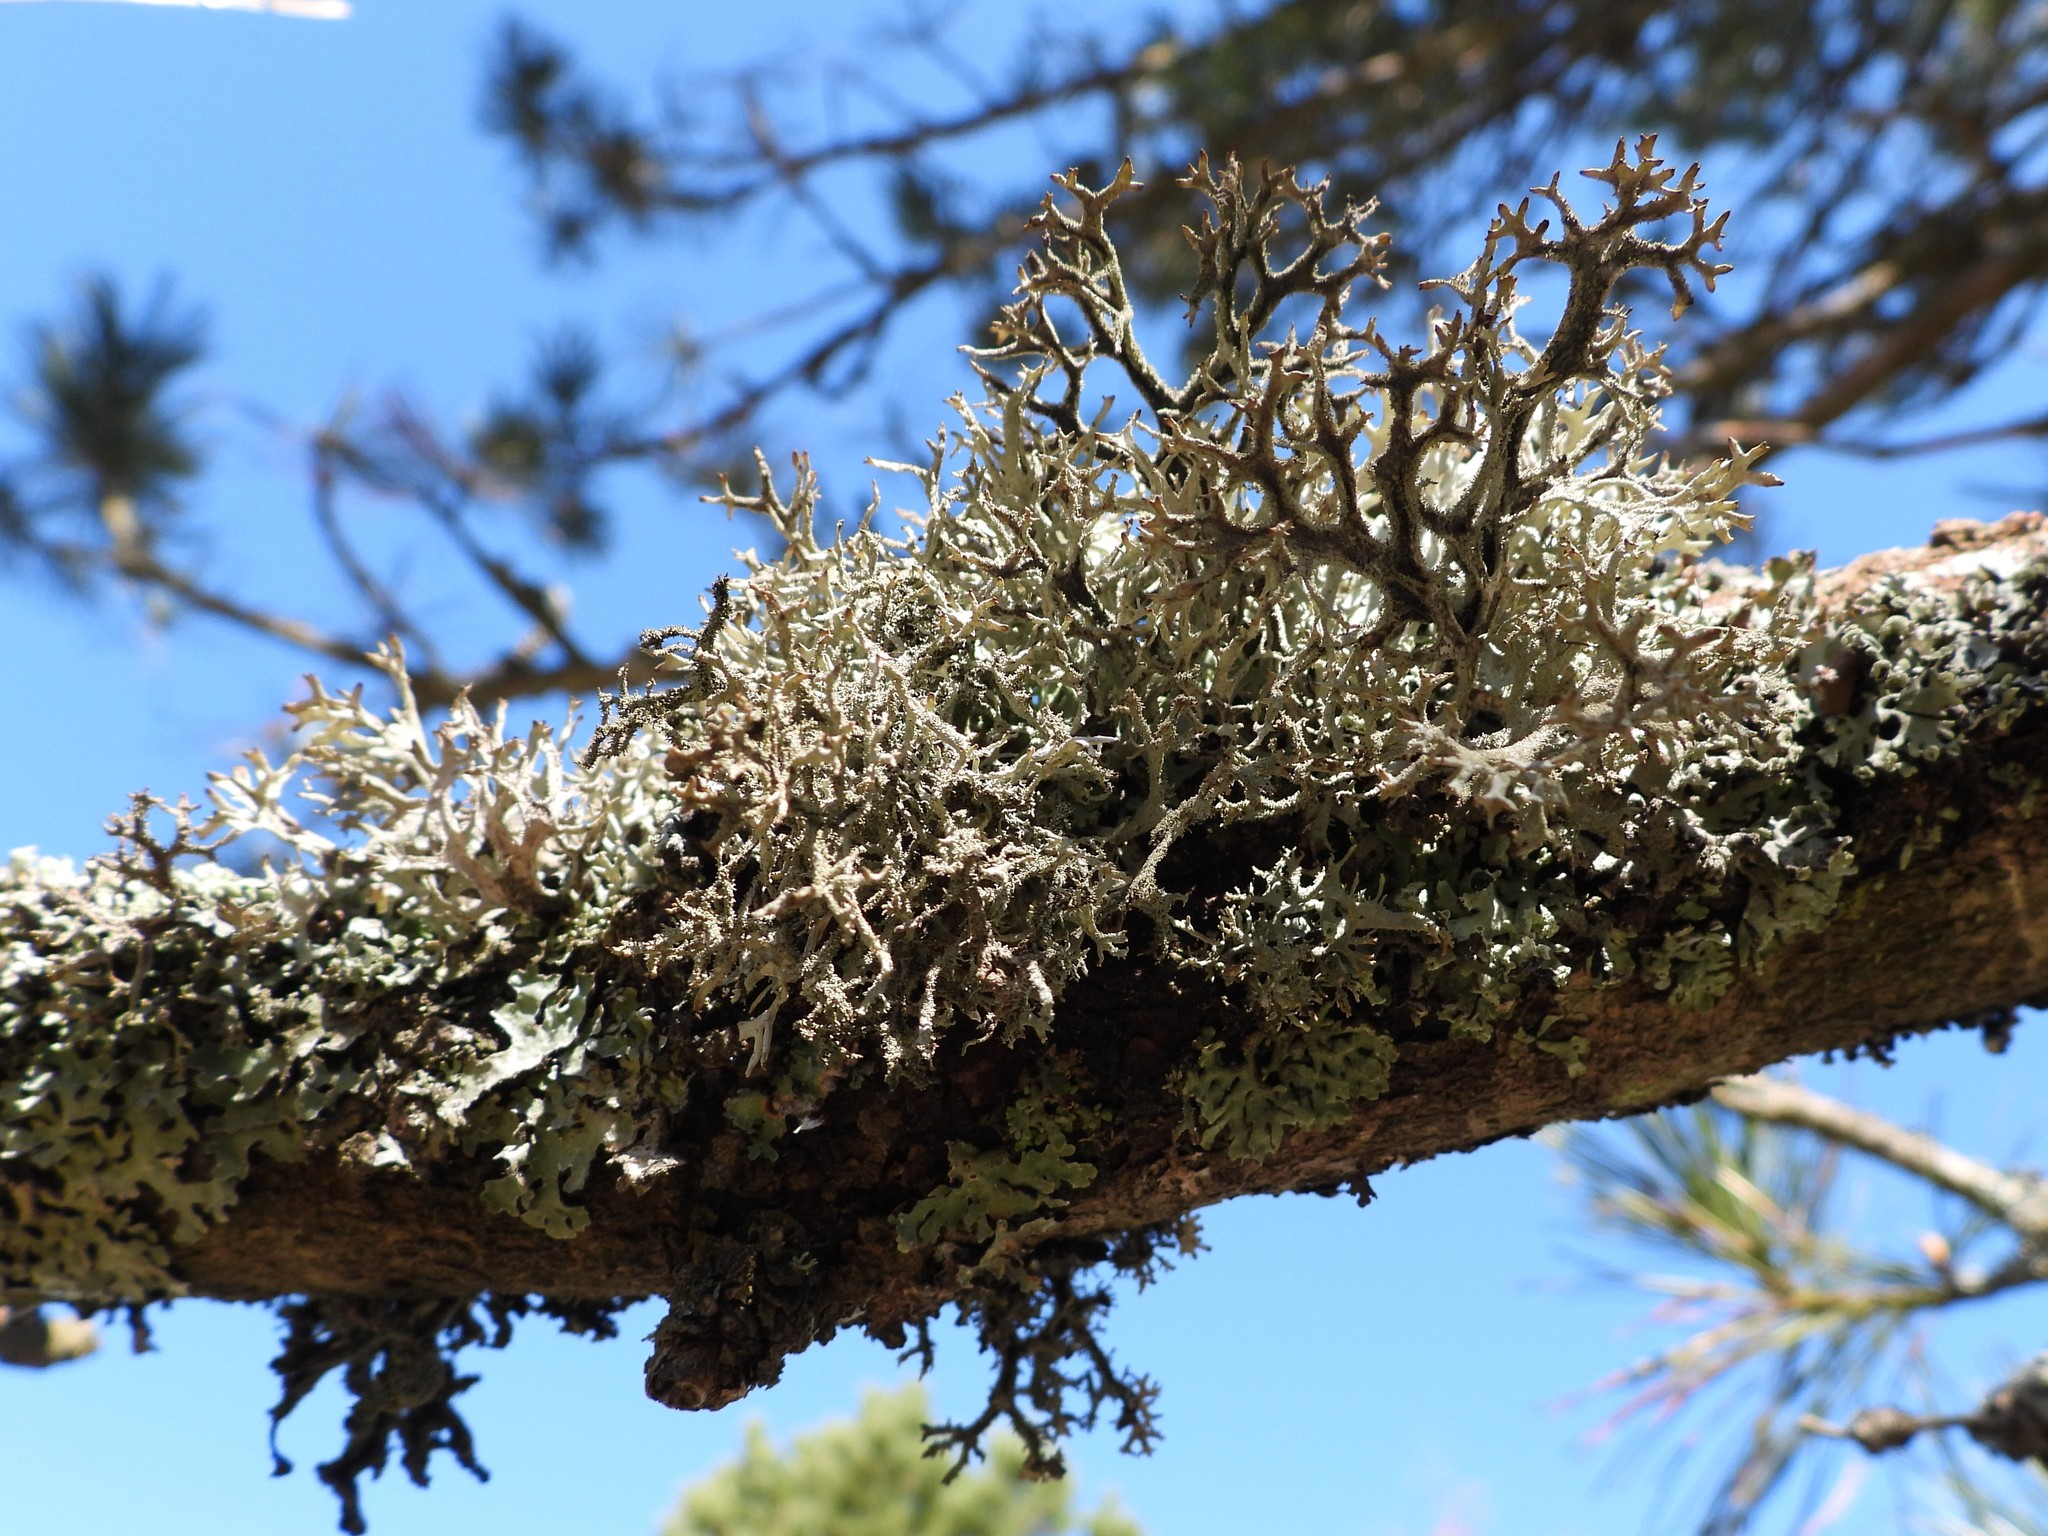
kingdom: Fungi
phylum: Ascomycota
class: Lecanoromycetes
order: Lecanorales
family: Parmeliaceae
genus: Pseudevernia
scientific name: Pseudevernia furfuracea
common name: Tree moss
